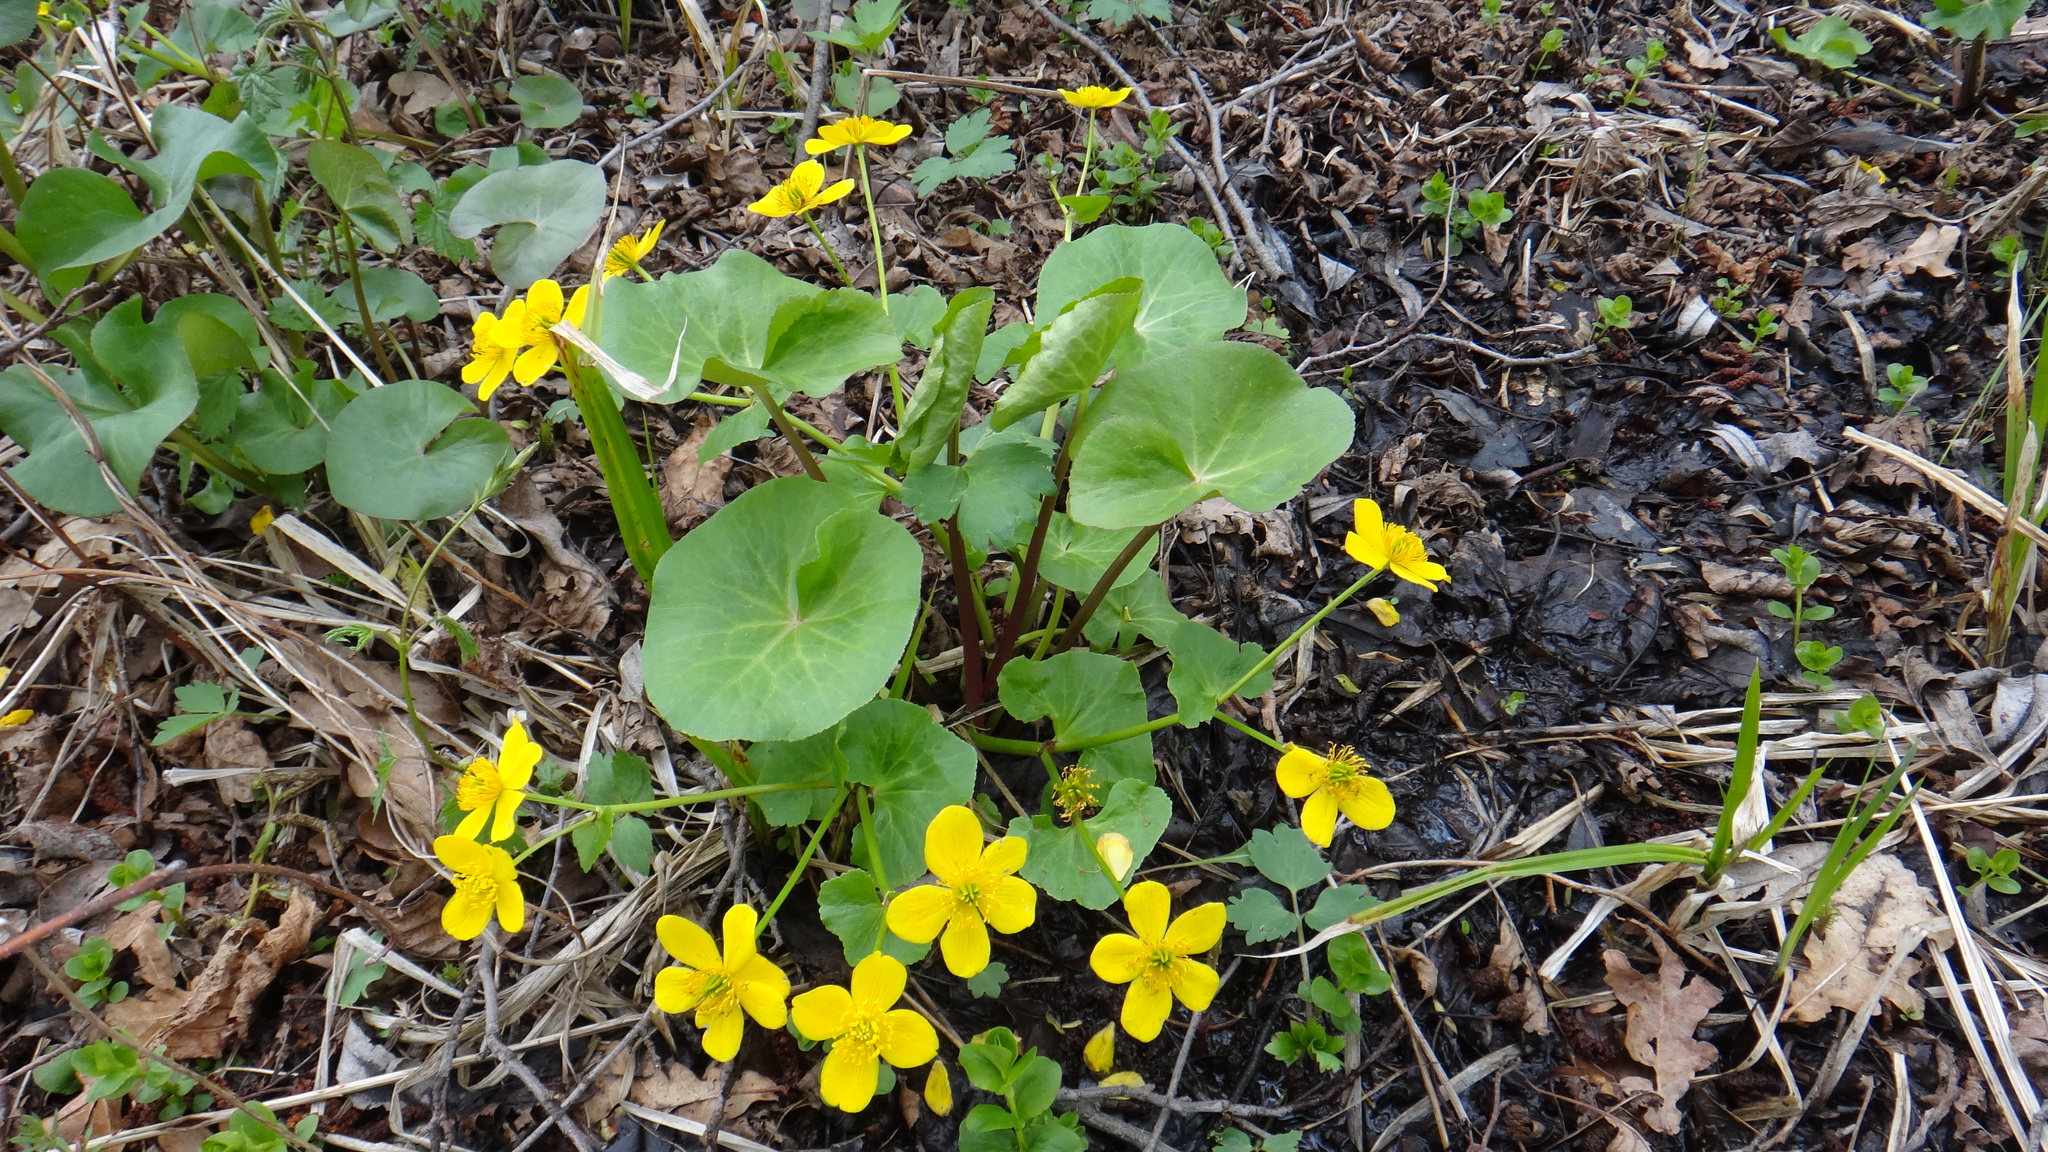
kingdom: Plantae
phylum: Tracheophyta
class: Magnoliopsida
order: Ranunculales
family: Ranunculaceae
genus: Caltha
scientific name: Caltha palustris
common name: Marsh marigold
